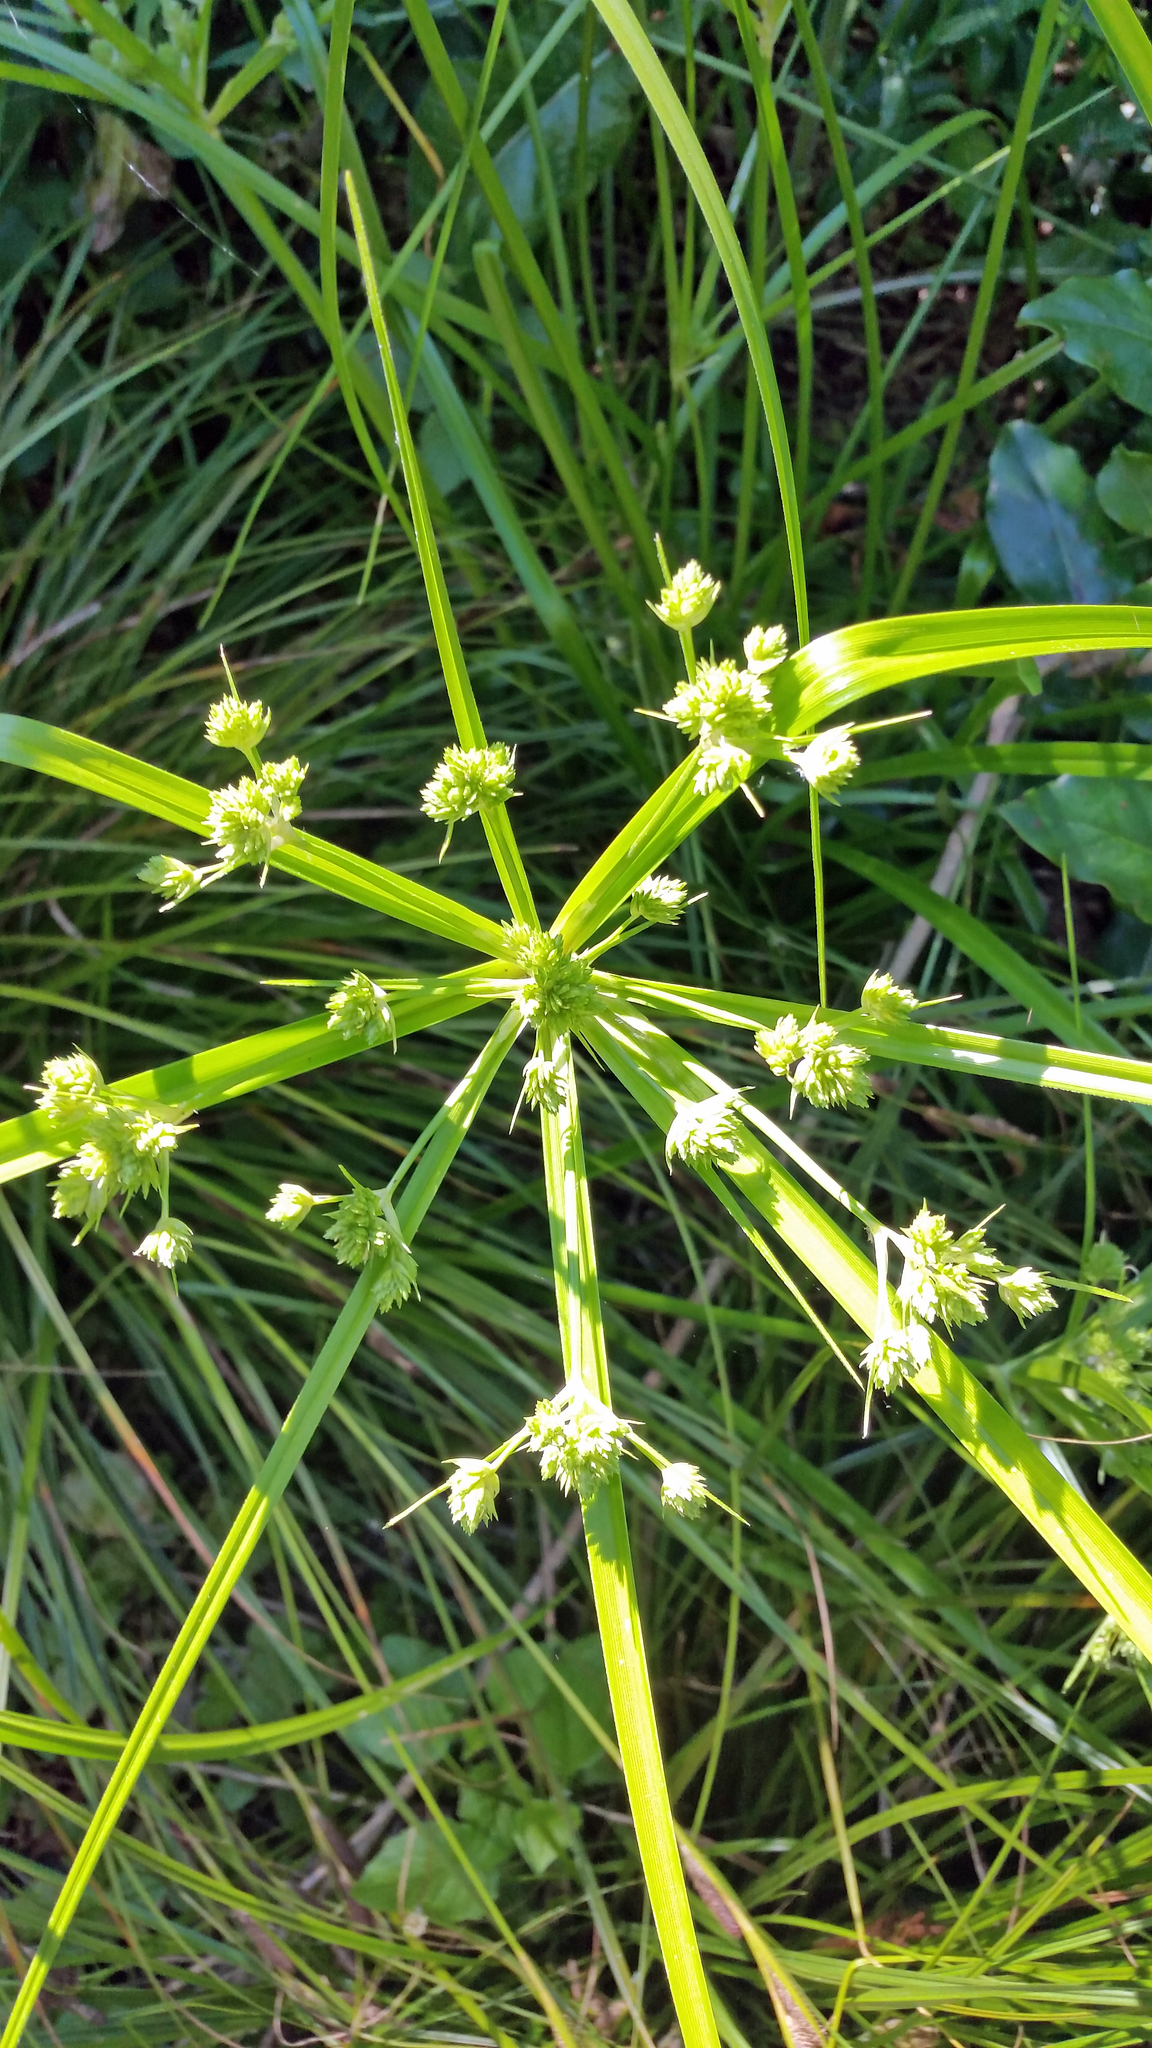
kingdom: Plantae
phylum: Tracheophyta
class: Liliopsida
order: Poales
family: Cyperaceae
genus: Cyperus
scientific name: Cyperus eragrostis
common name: Tall flatsedge
